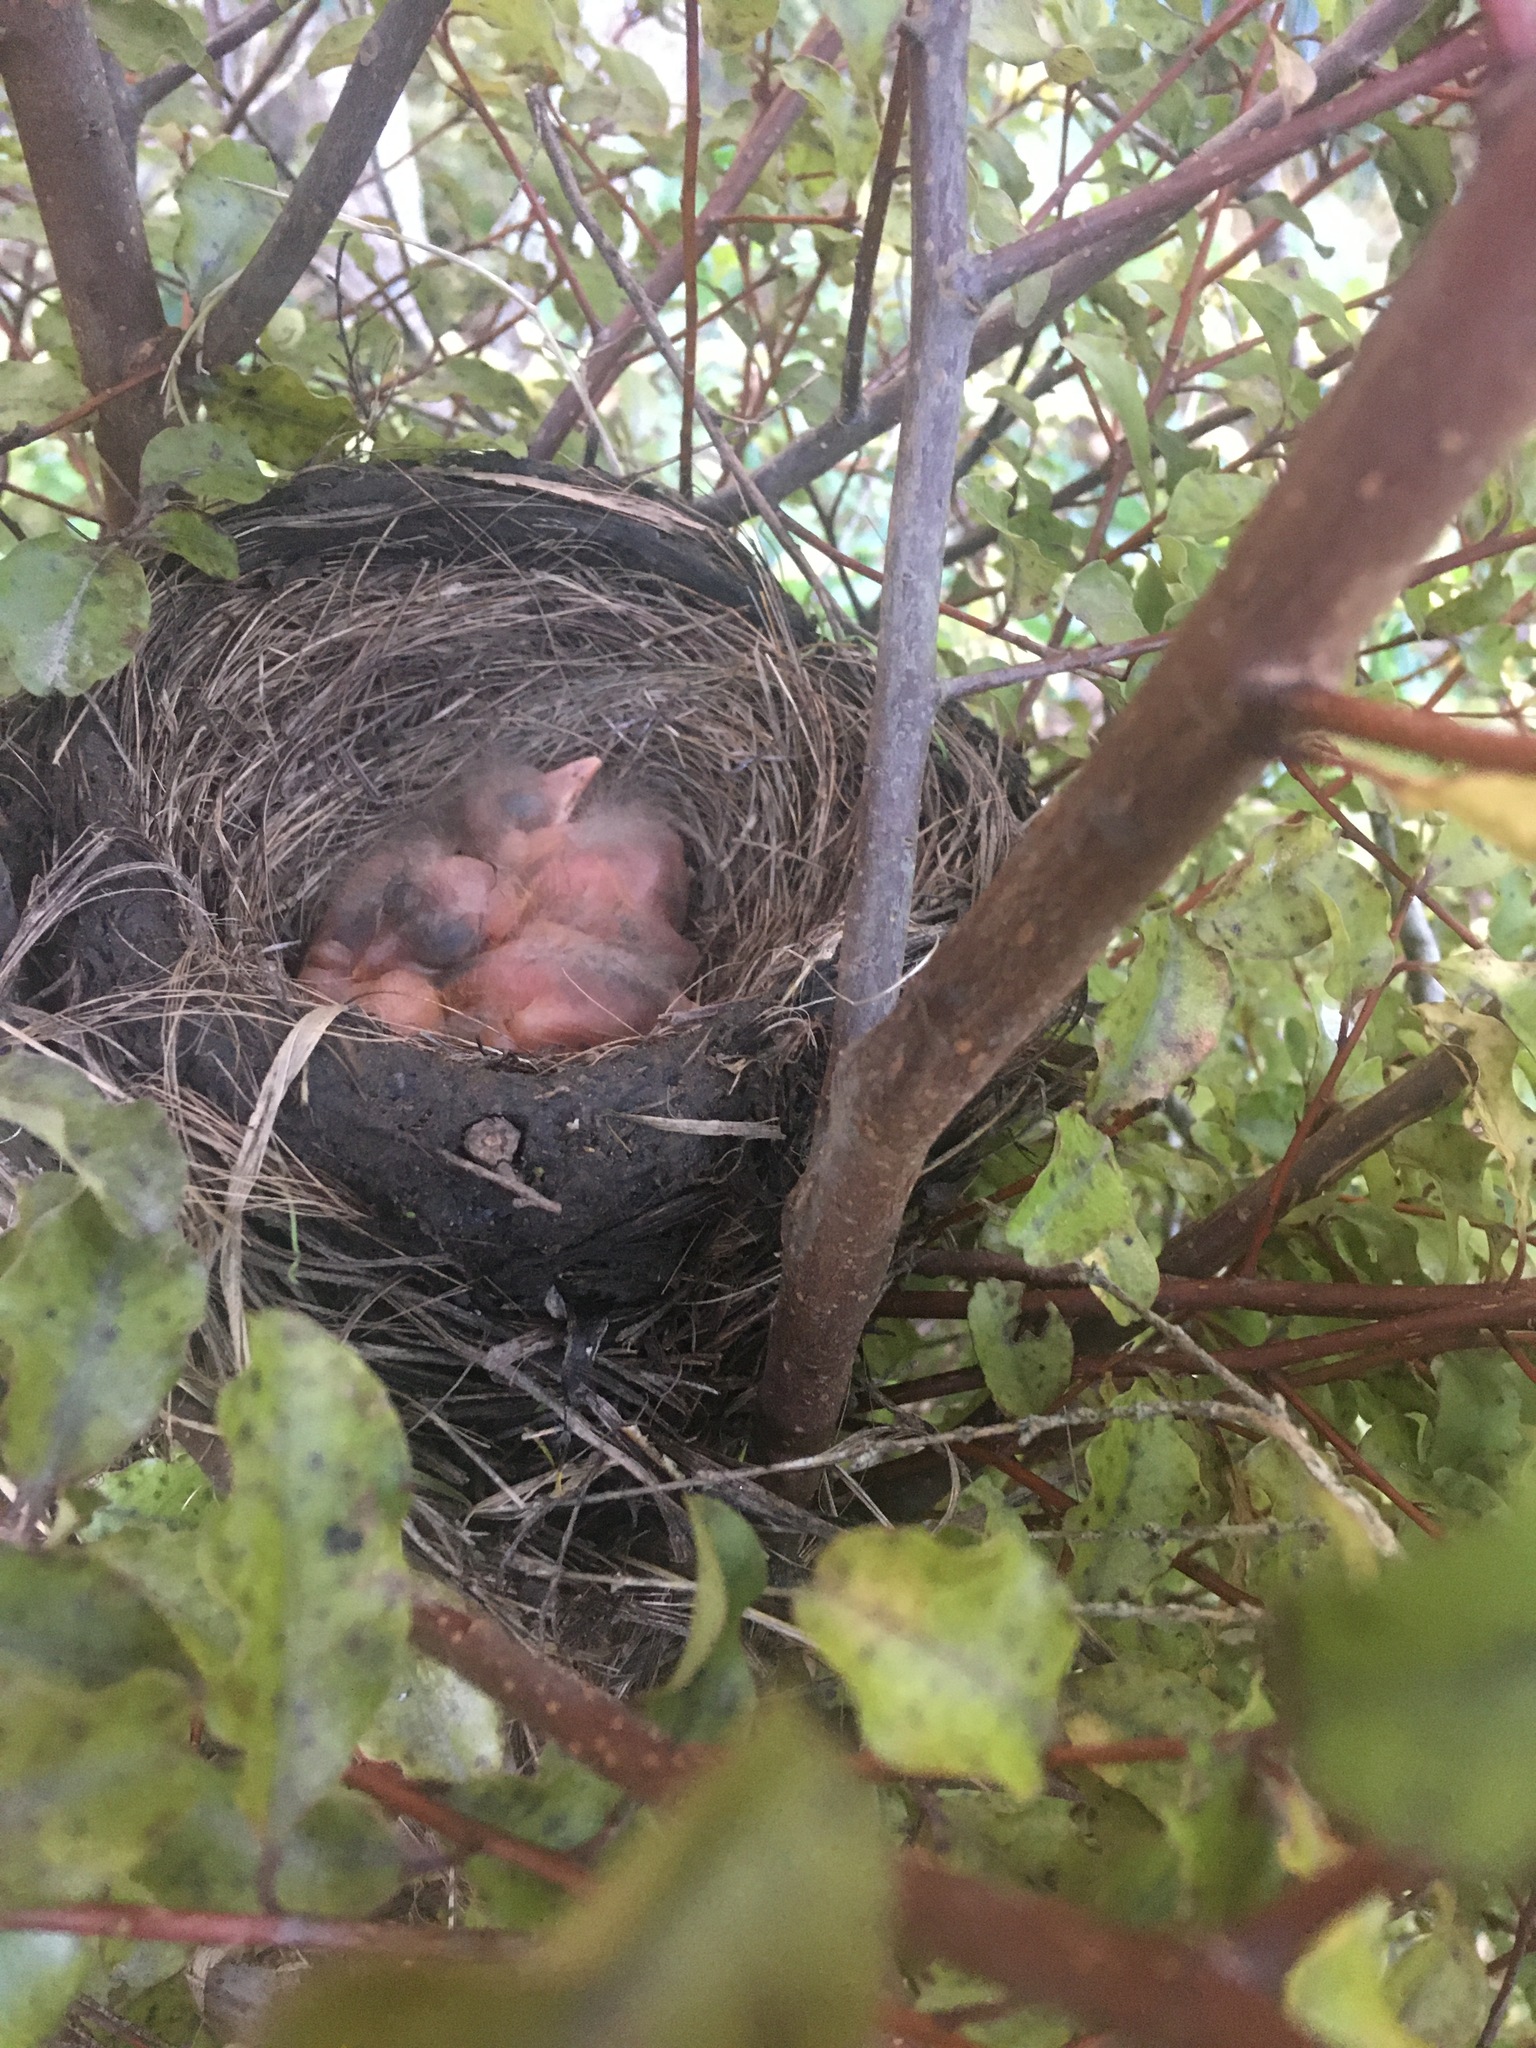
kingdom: Animalia
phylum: Chordata
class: Aves
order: Passeriformes
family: Turdidae
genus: Turdus
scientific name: Turdus merula
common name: Common blackbird
